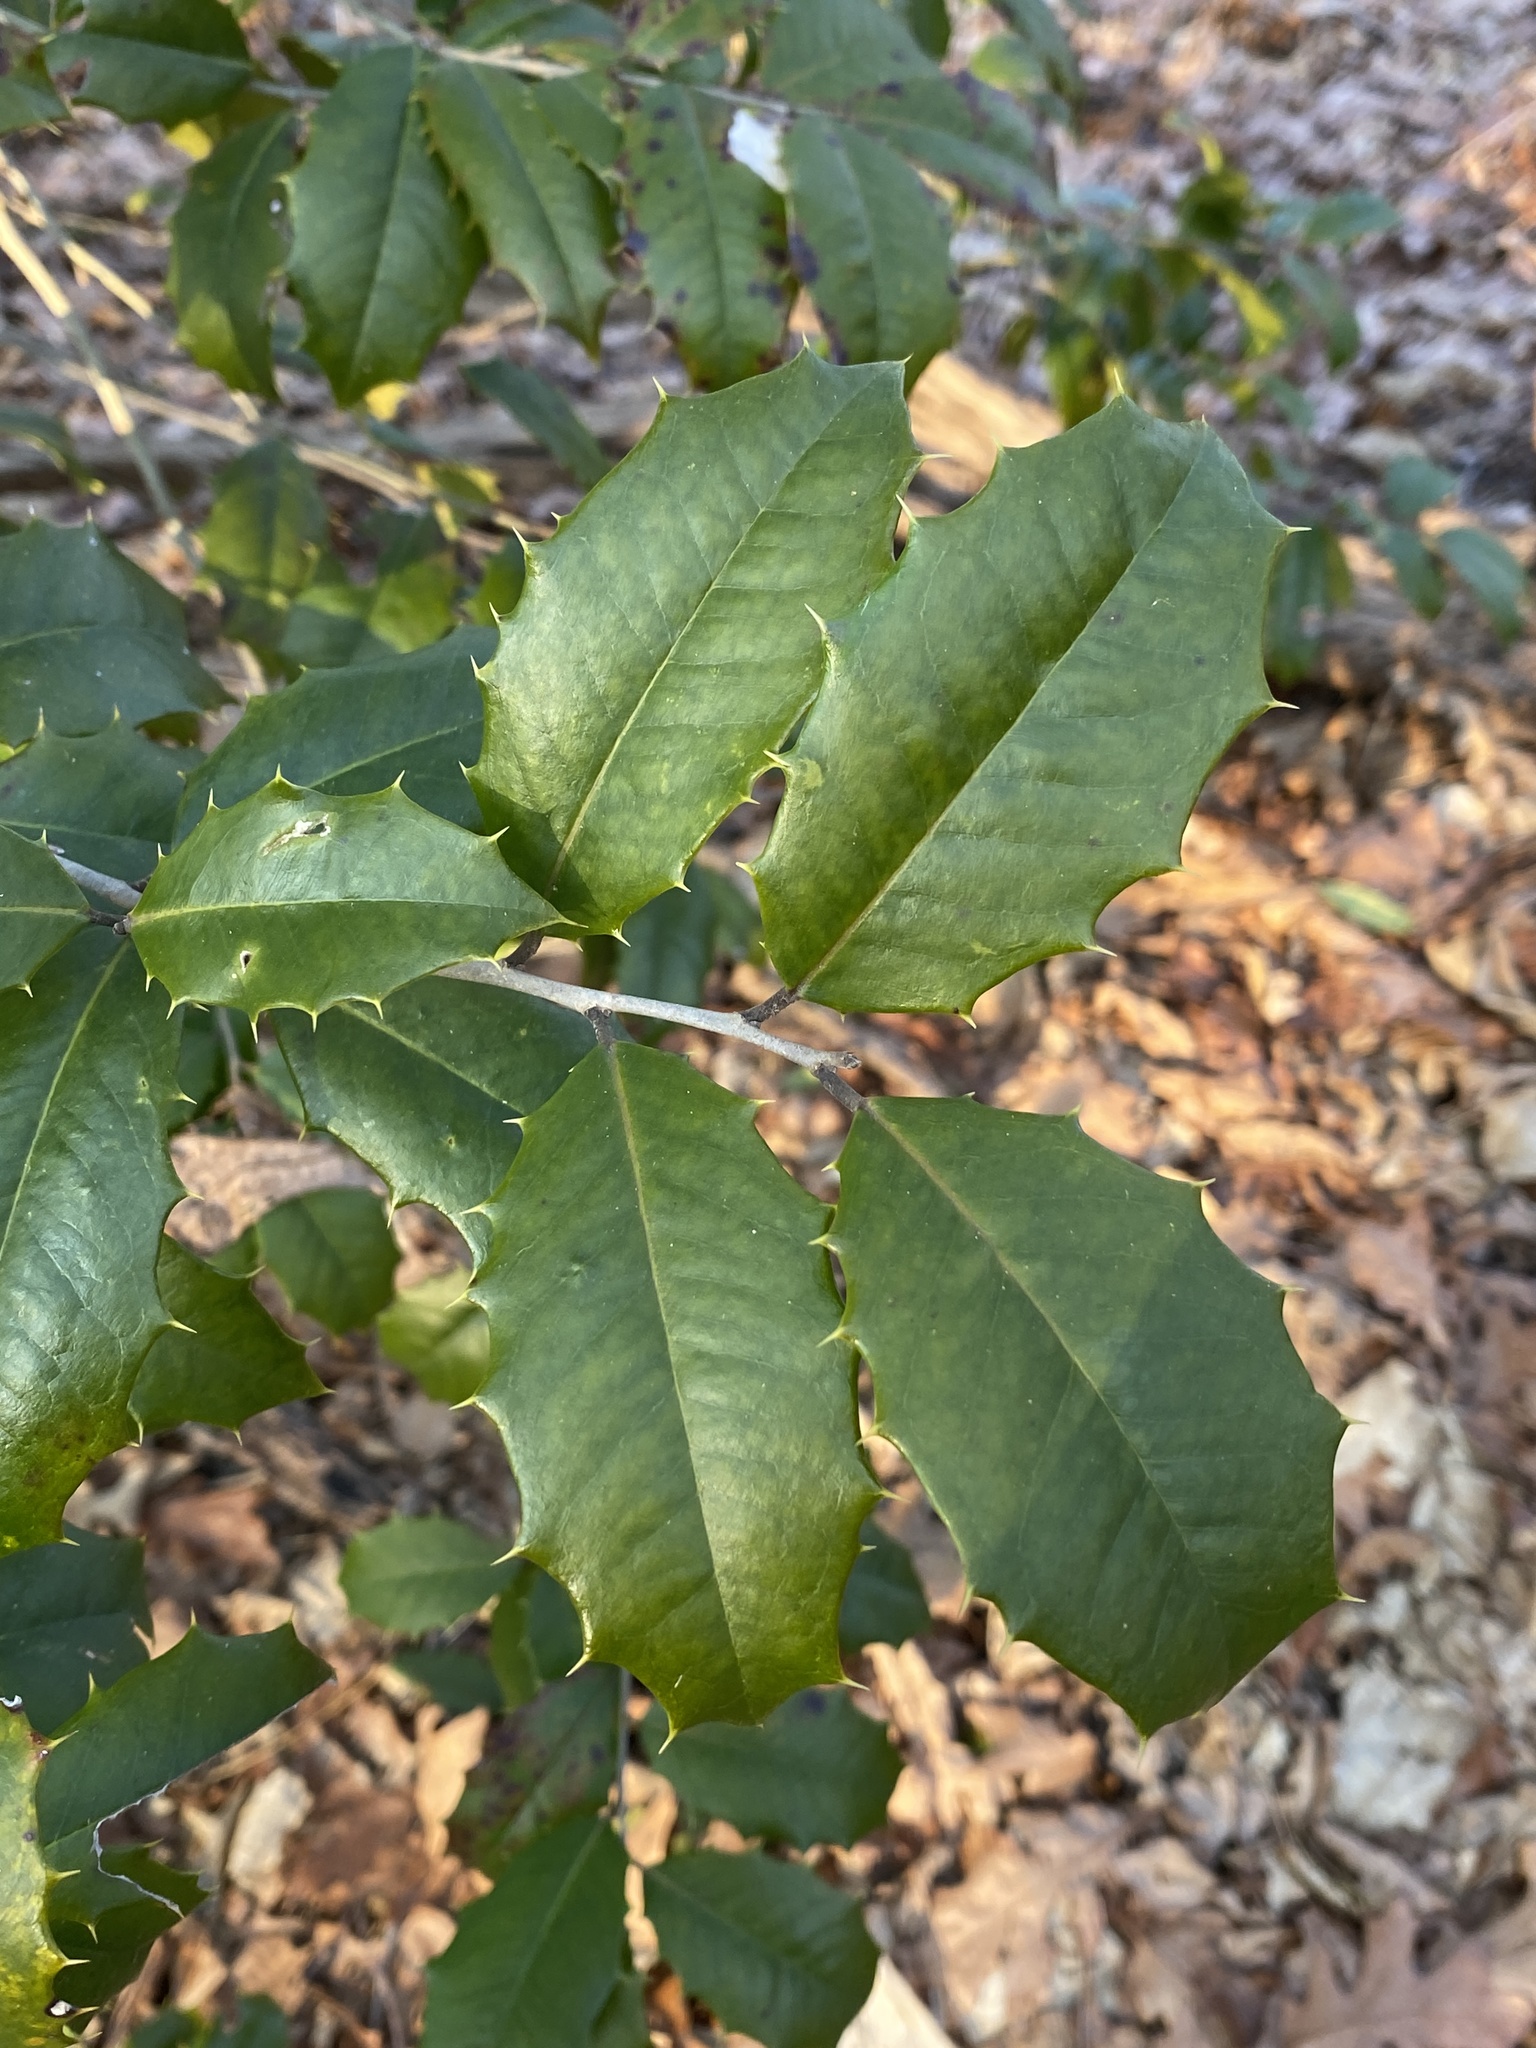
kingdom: Plantae
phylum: Tracheophyta
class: Magnoliopsida
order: Aquifoliales
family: Aquifoliaceae
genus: Ilex
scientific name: Ilex opaca
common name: American holly
